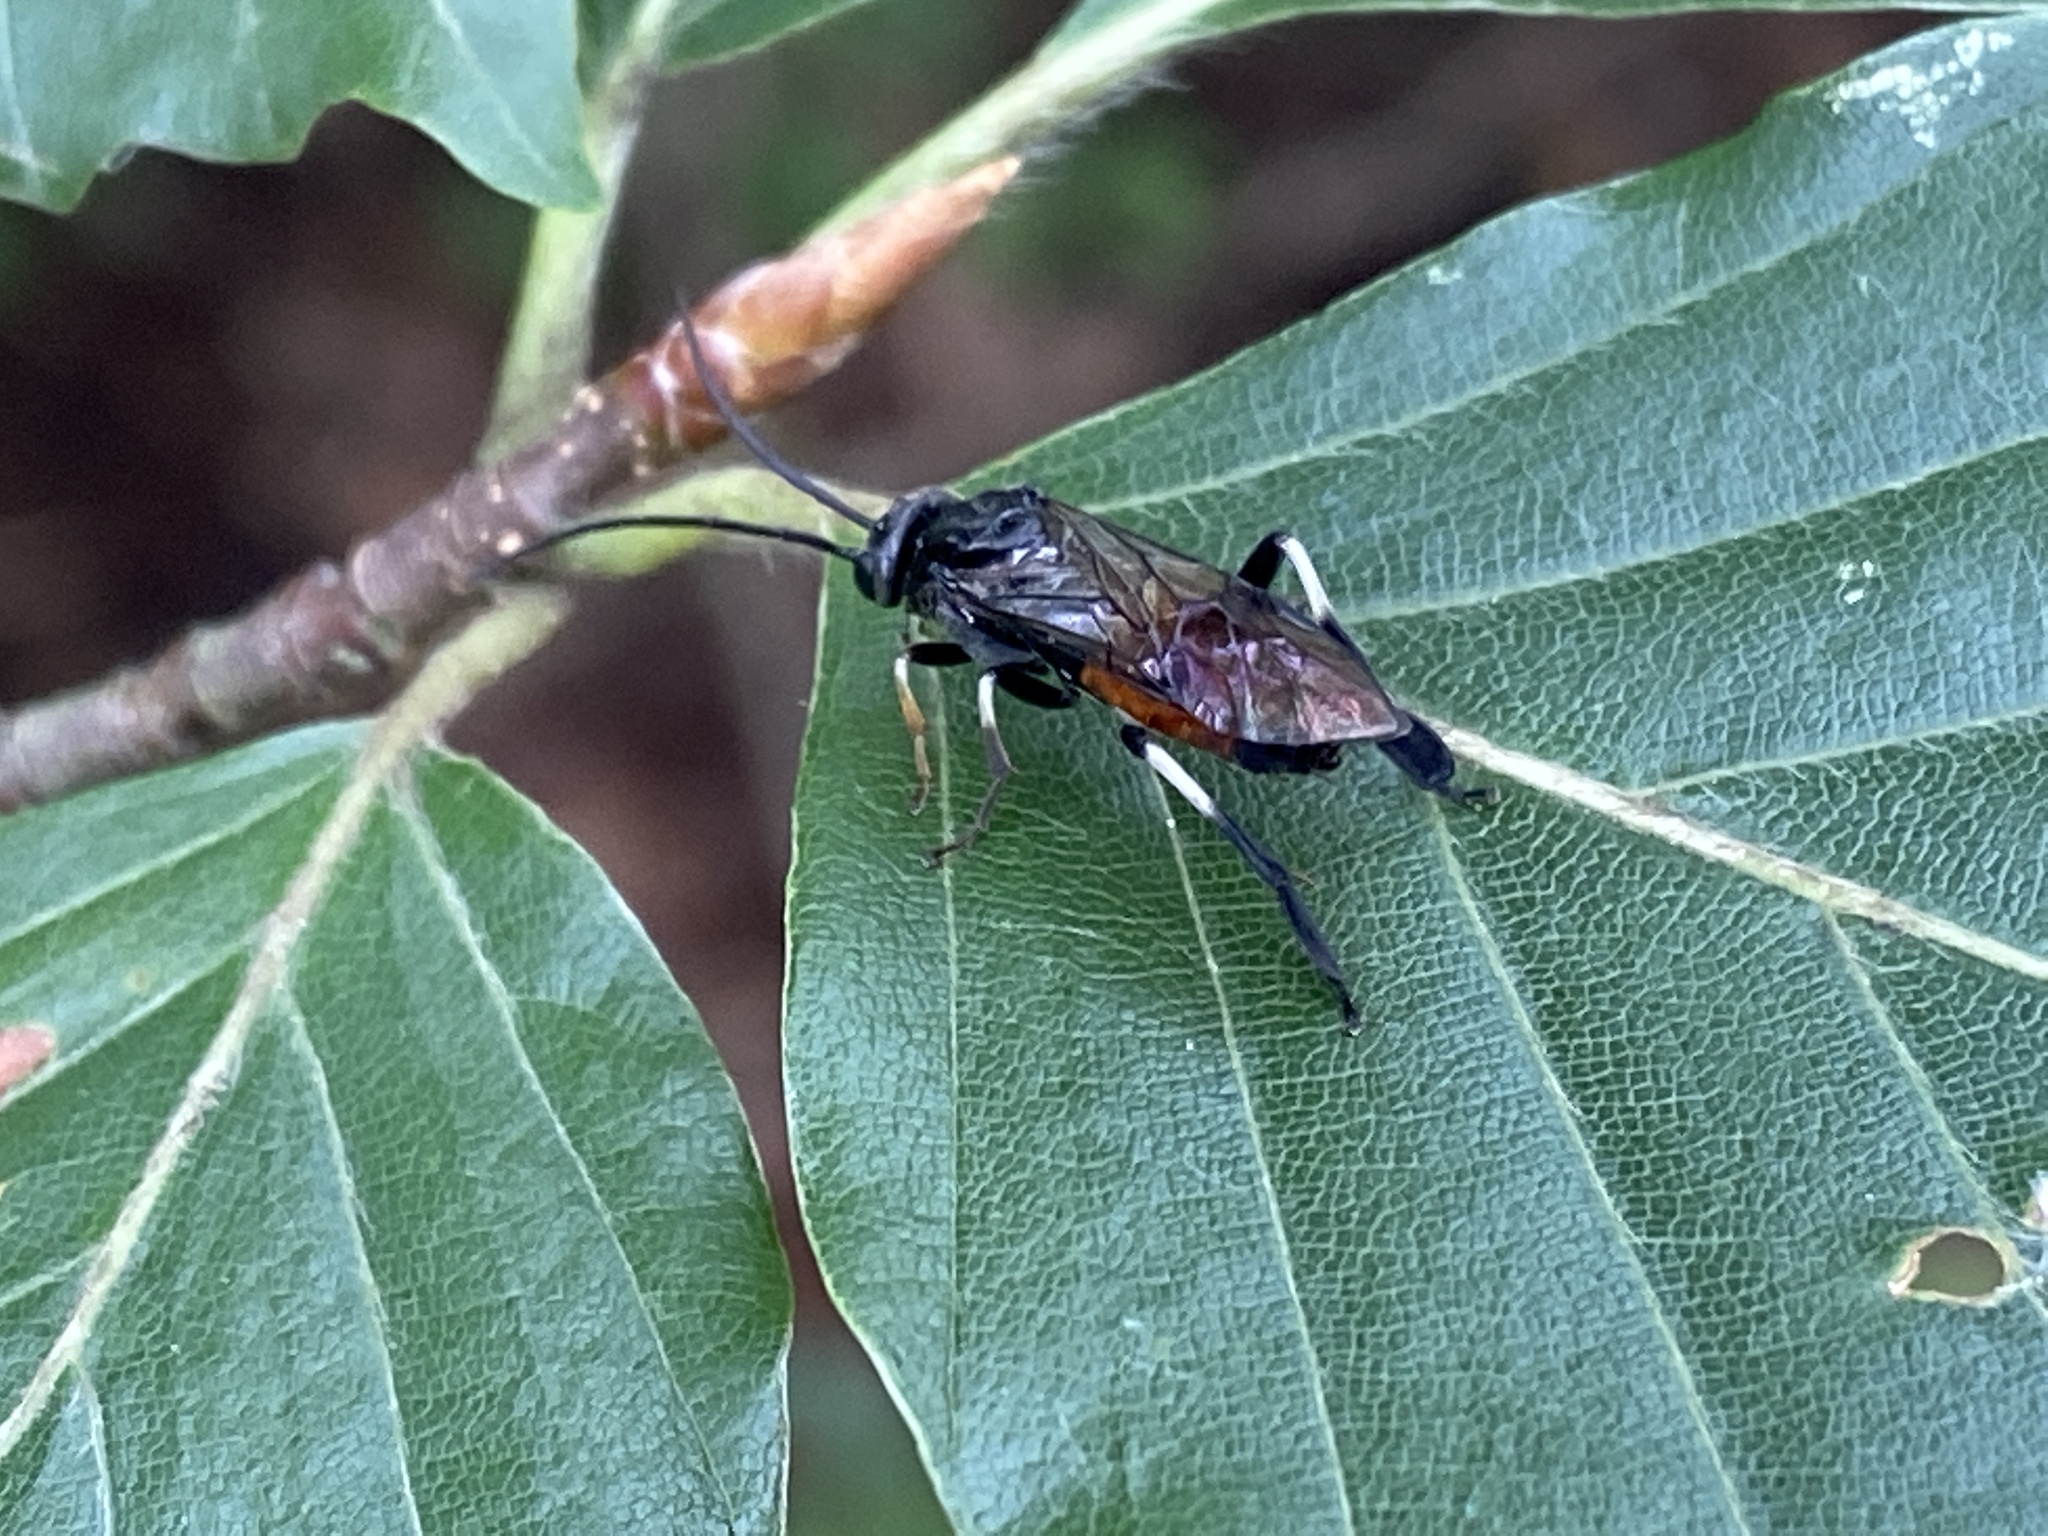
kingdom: Animalia
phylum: Arthropoda
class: Insecta
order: Hymenoptera
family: Tenthredinidae
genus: Craesus
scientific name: Craesus septentrionalis
